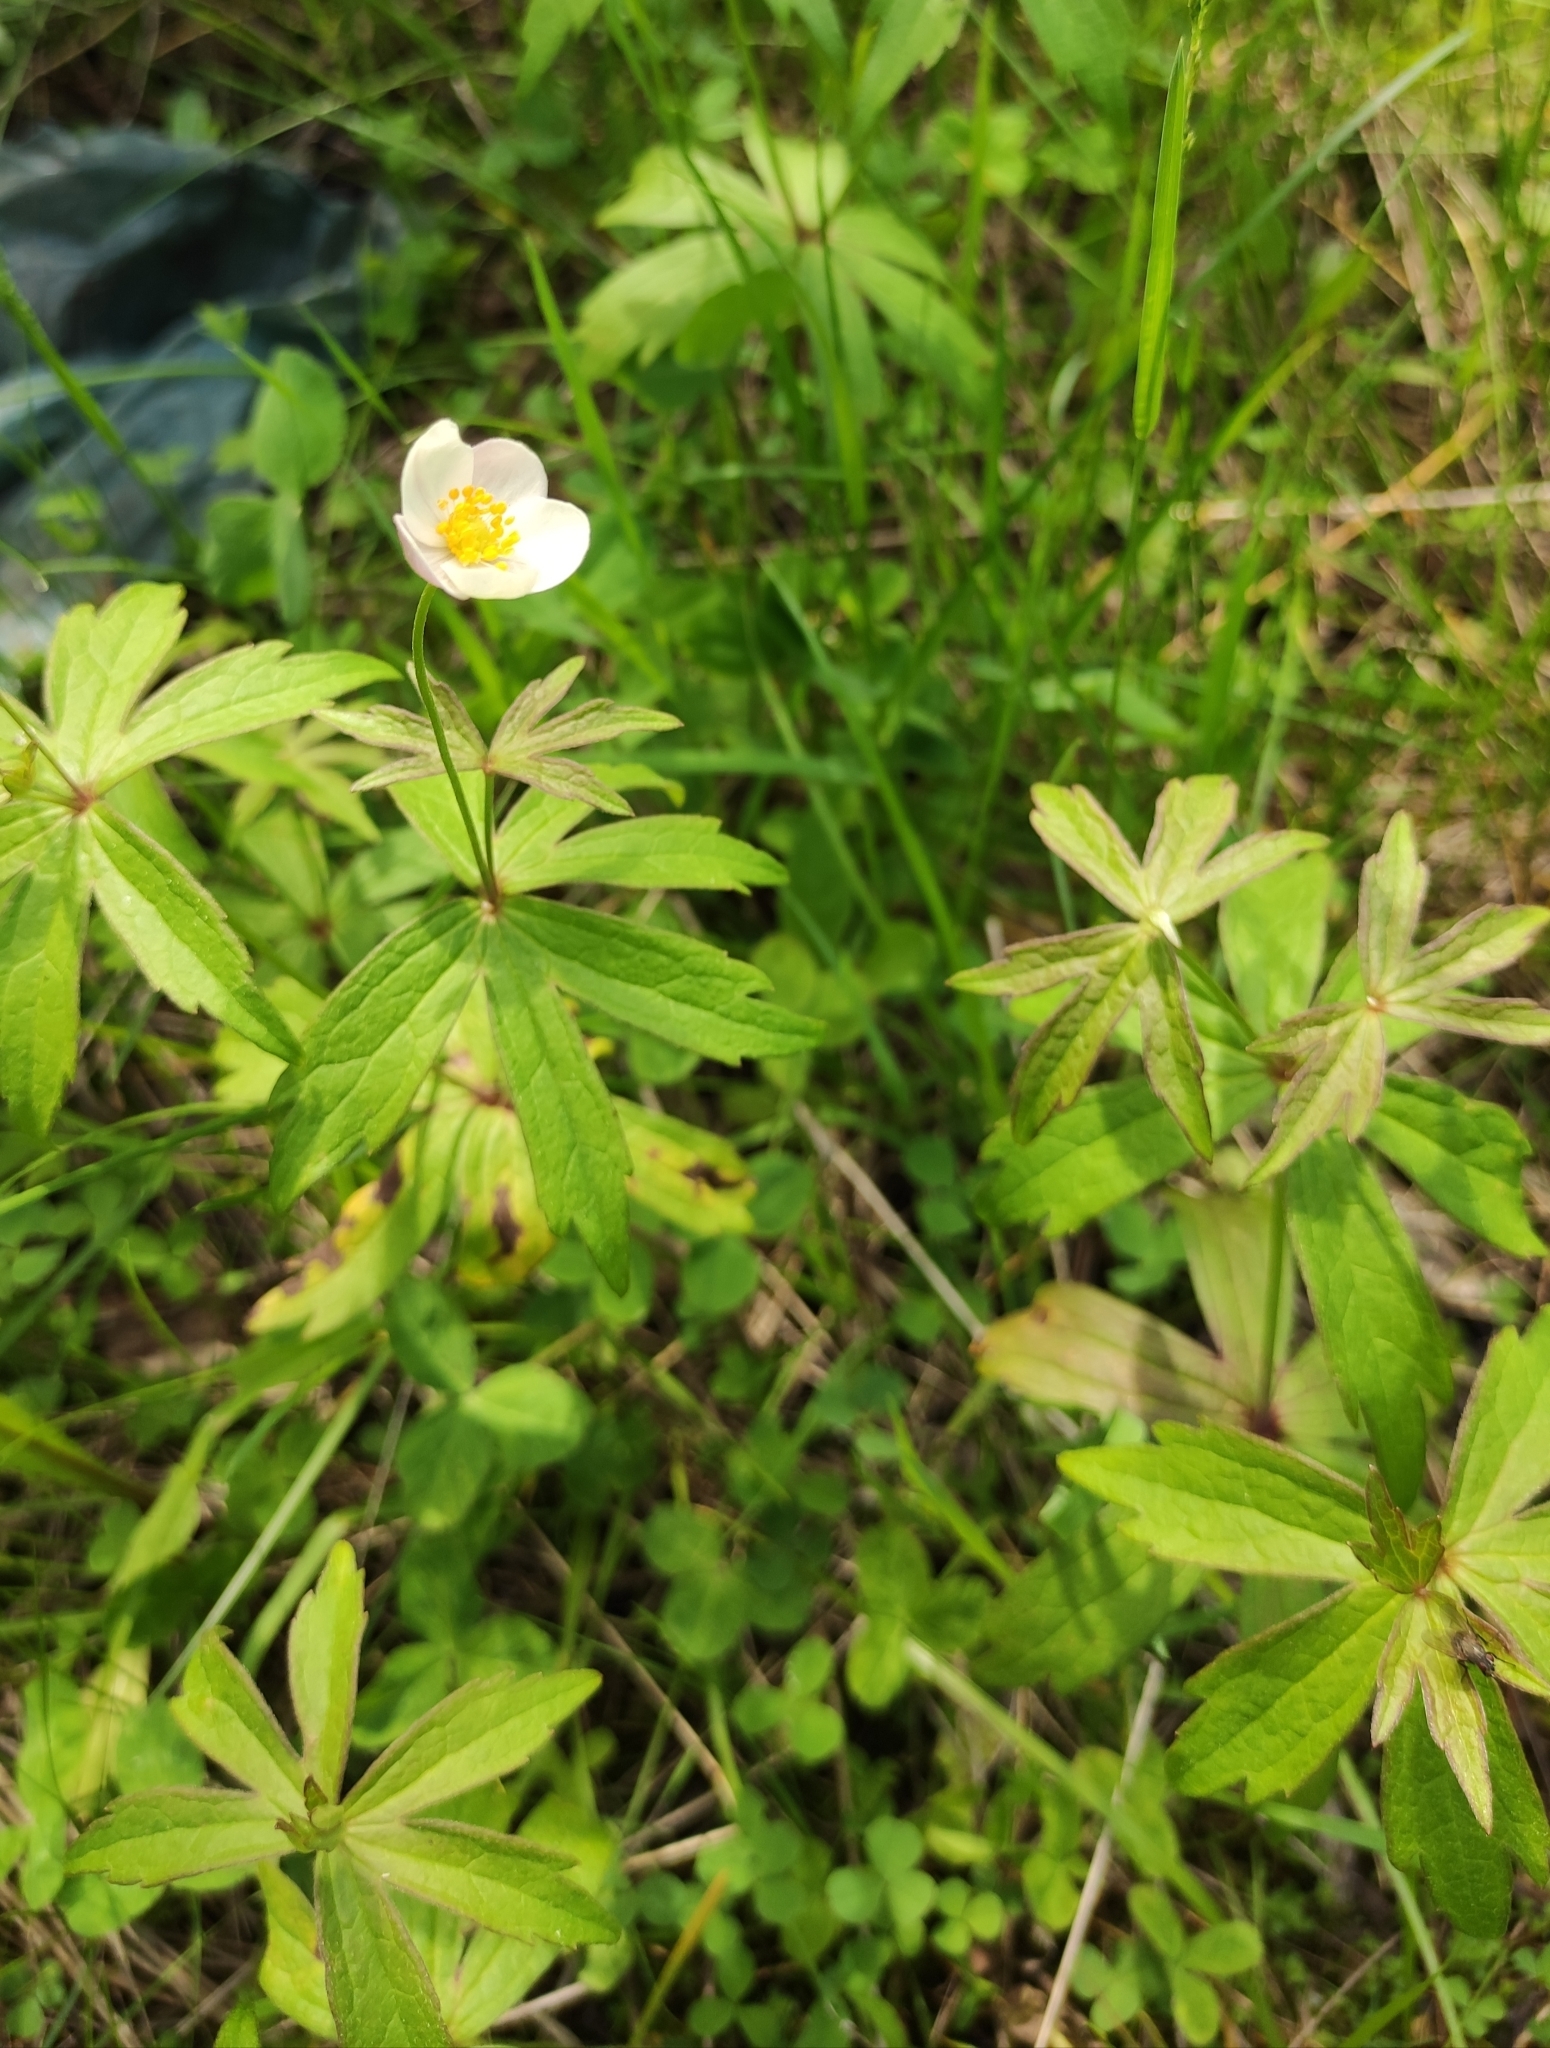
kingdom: Plantae
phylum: Tracheophyta
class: Magnoliopsida
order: Ranunculales
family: Ranunculaceae
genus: Anemonastrum
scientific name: Anemonastrum dichotomum
